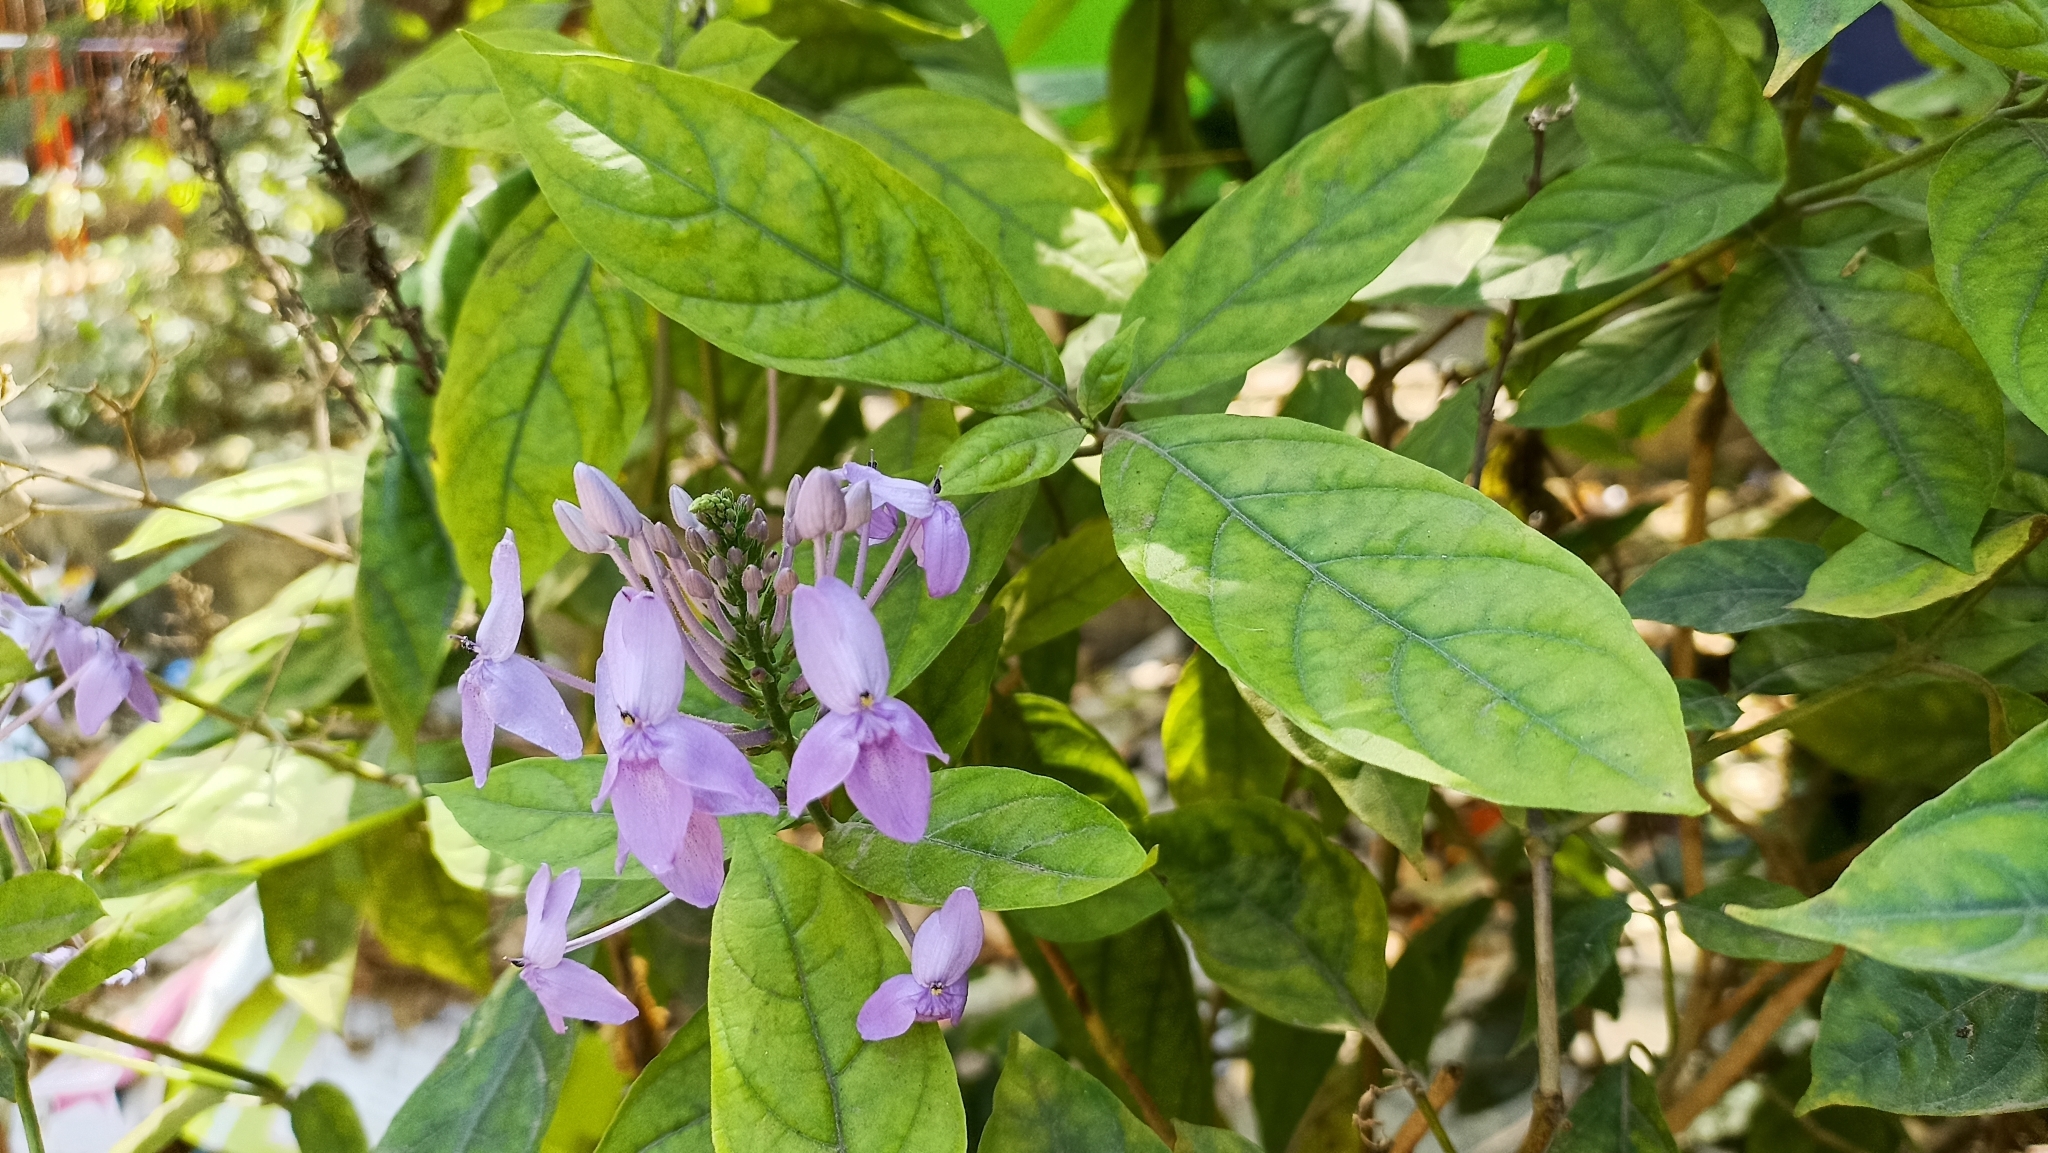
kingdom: Plantae
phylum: Tracheophyta
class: Magnoliopsida
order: Lamiales
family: Acanthaceae
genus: Pseuderanthemum
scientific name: Pseuderanthemum graciliflorum
